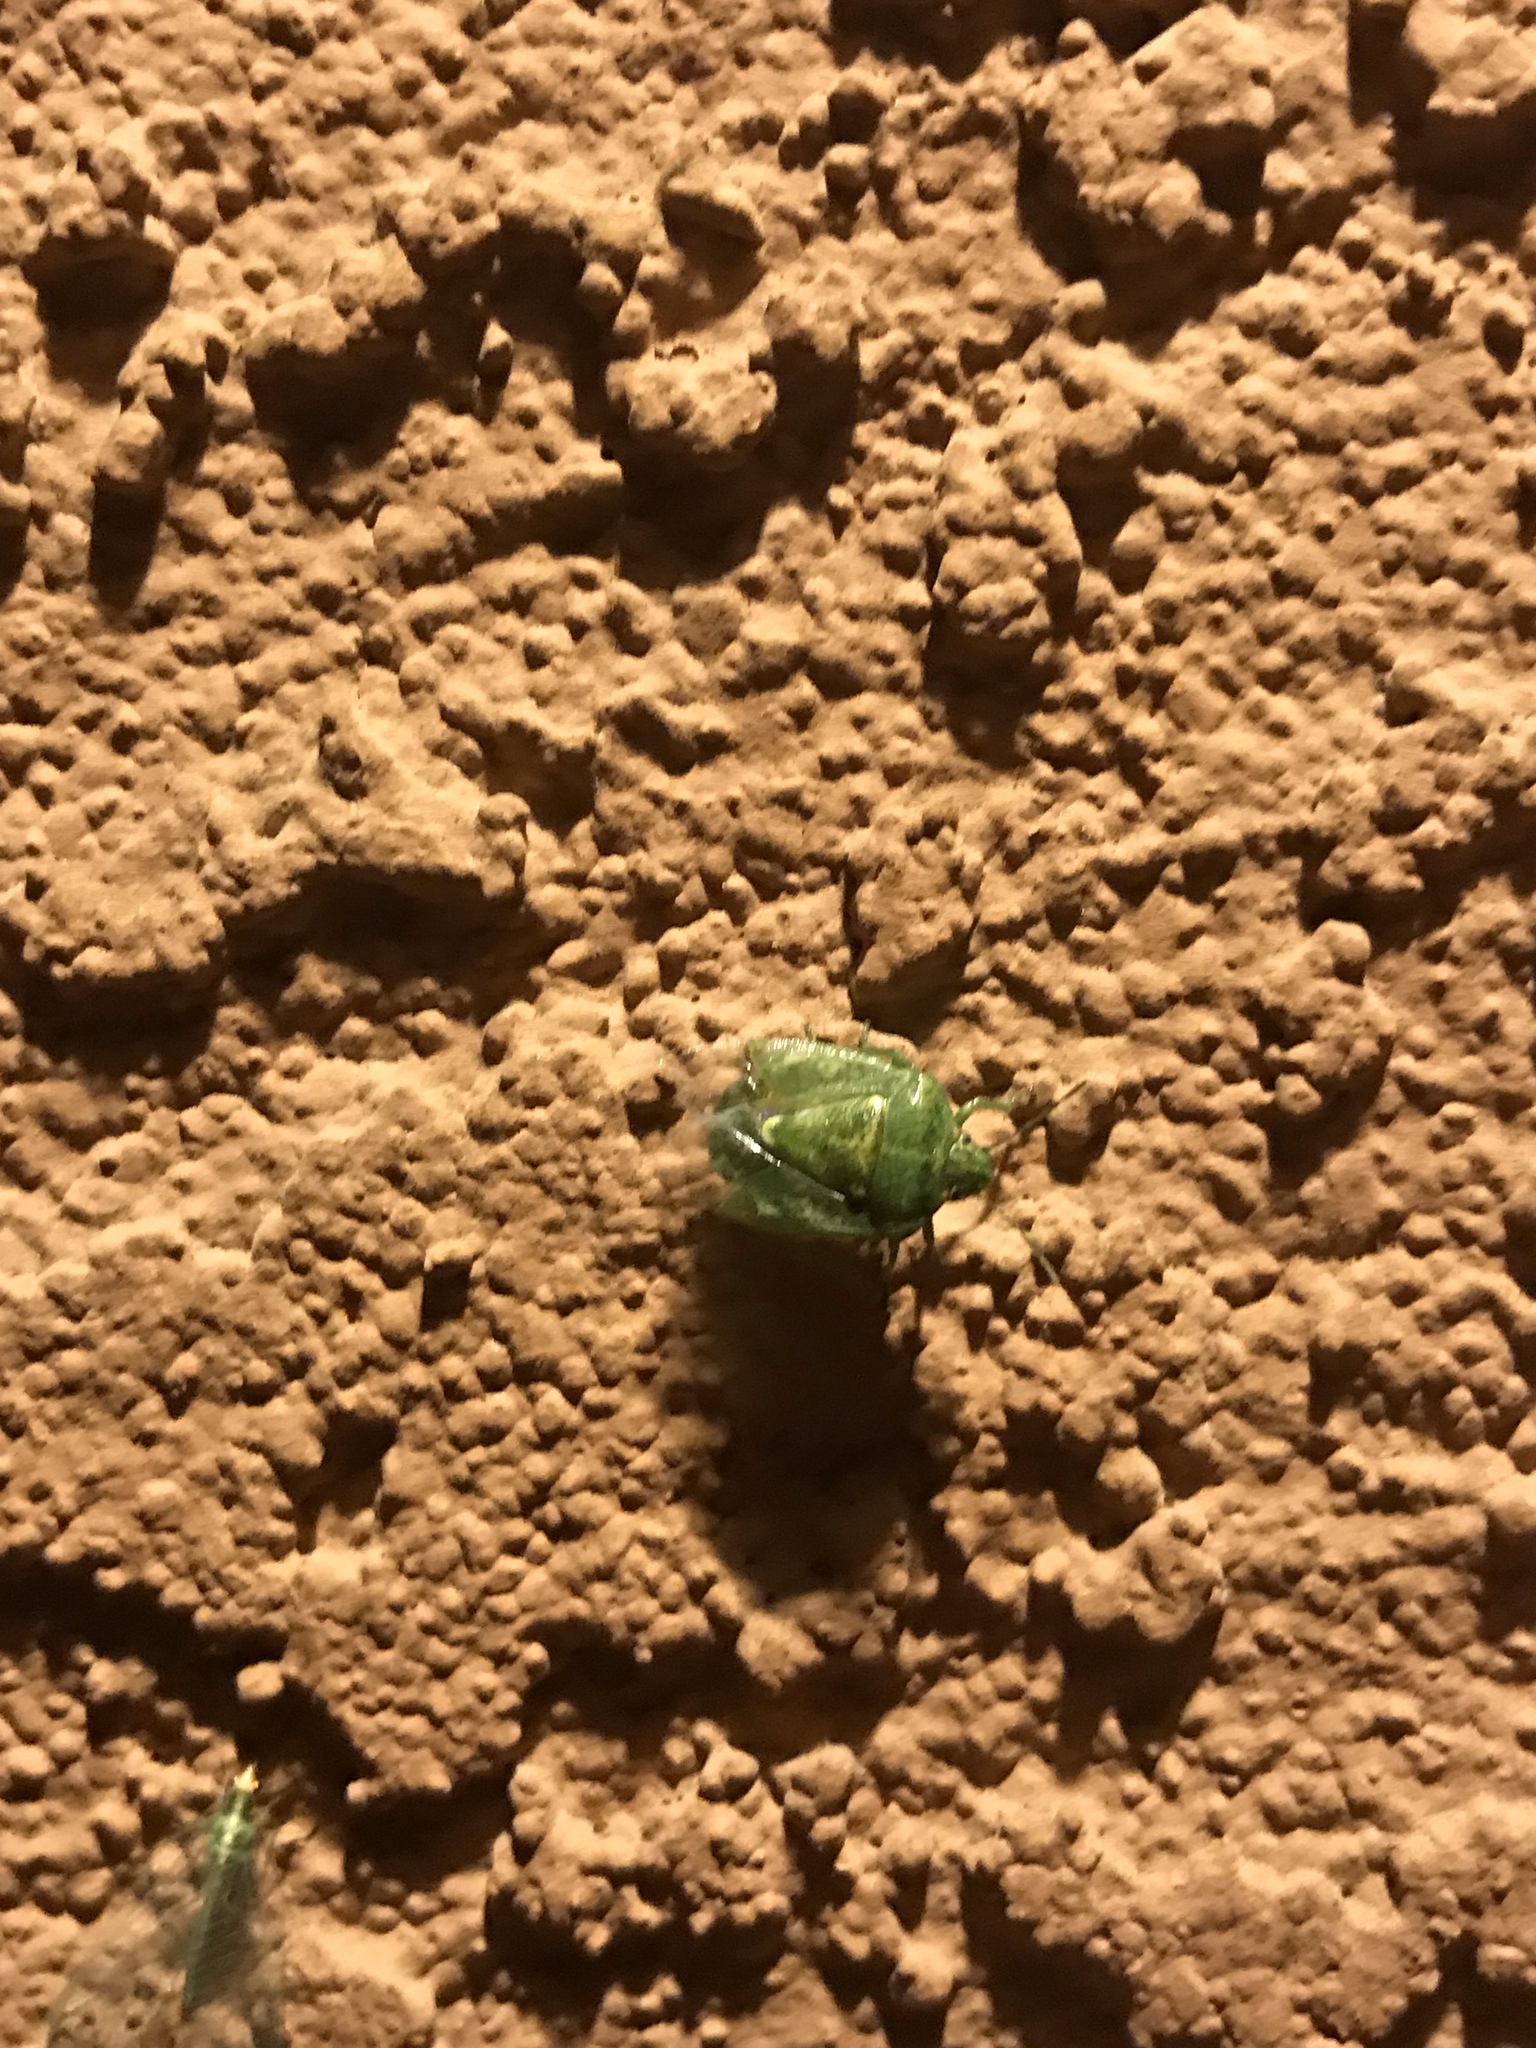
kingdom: Animalia
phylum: Arthropoda
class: Insecta
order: Hemiptera
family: Pentatomidae
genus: Banasa
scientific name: Banasa euchlora
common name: Cedar berry bug
